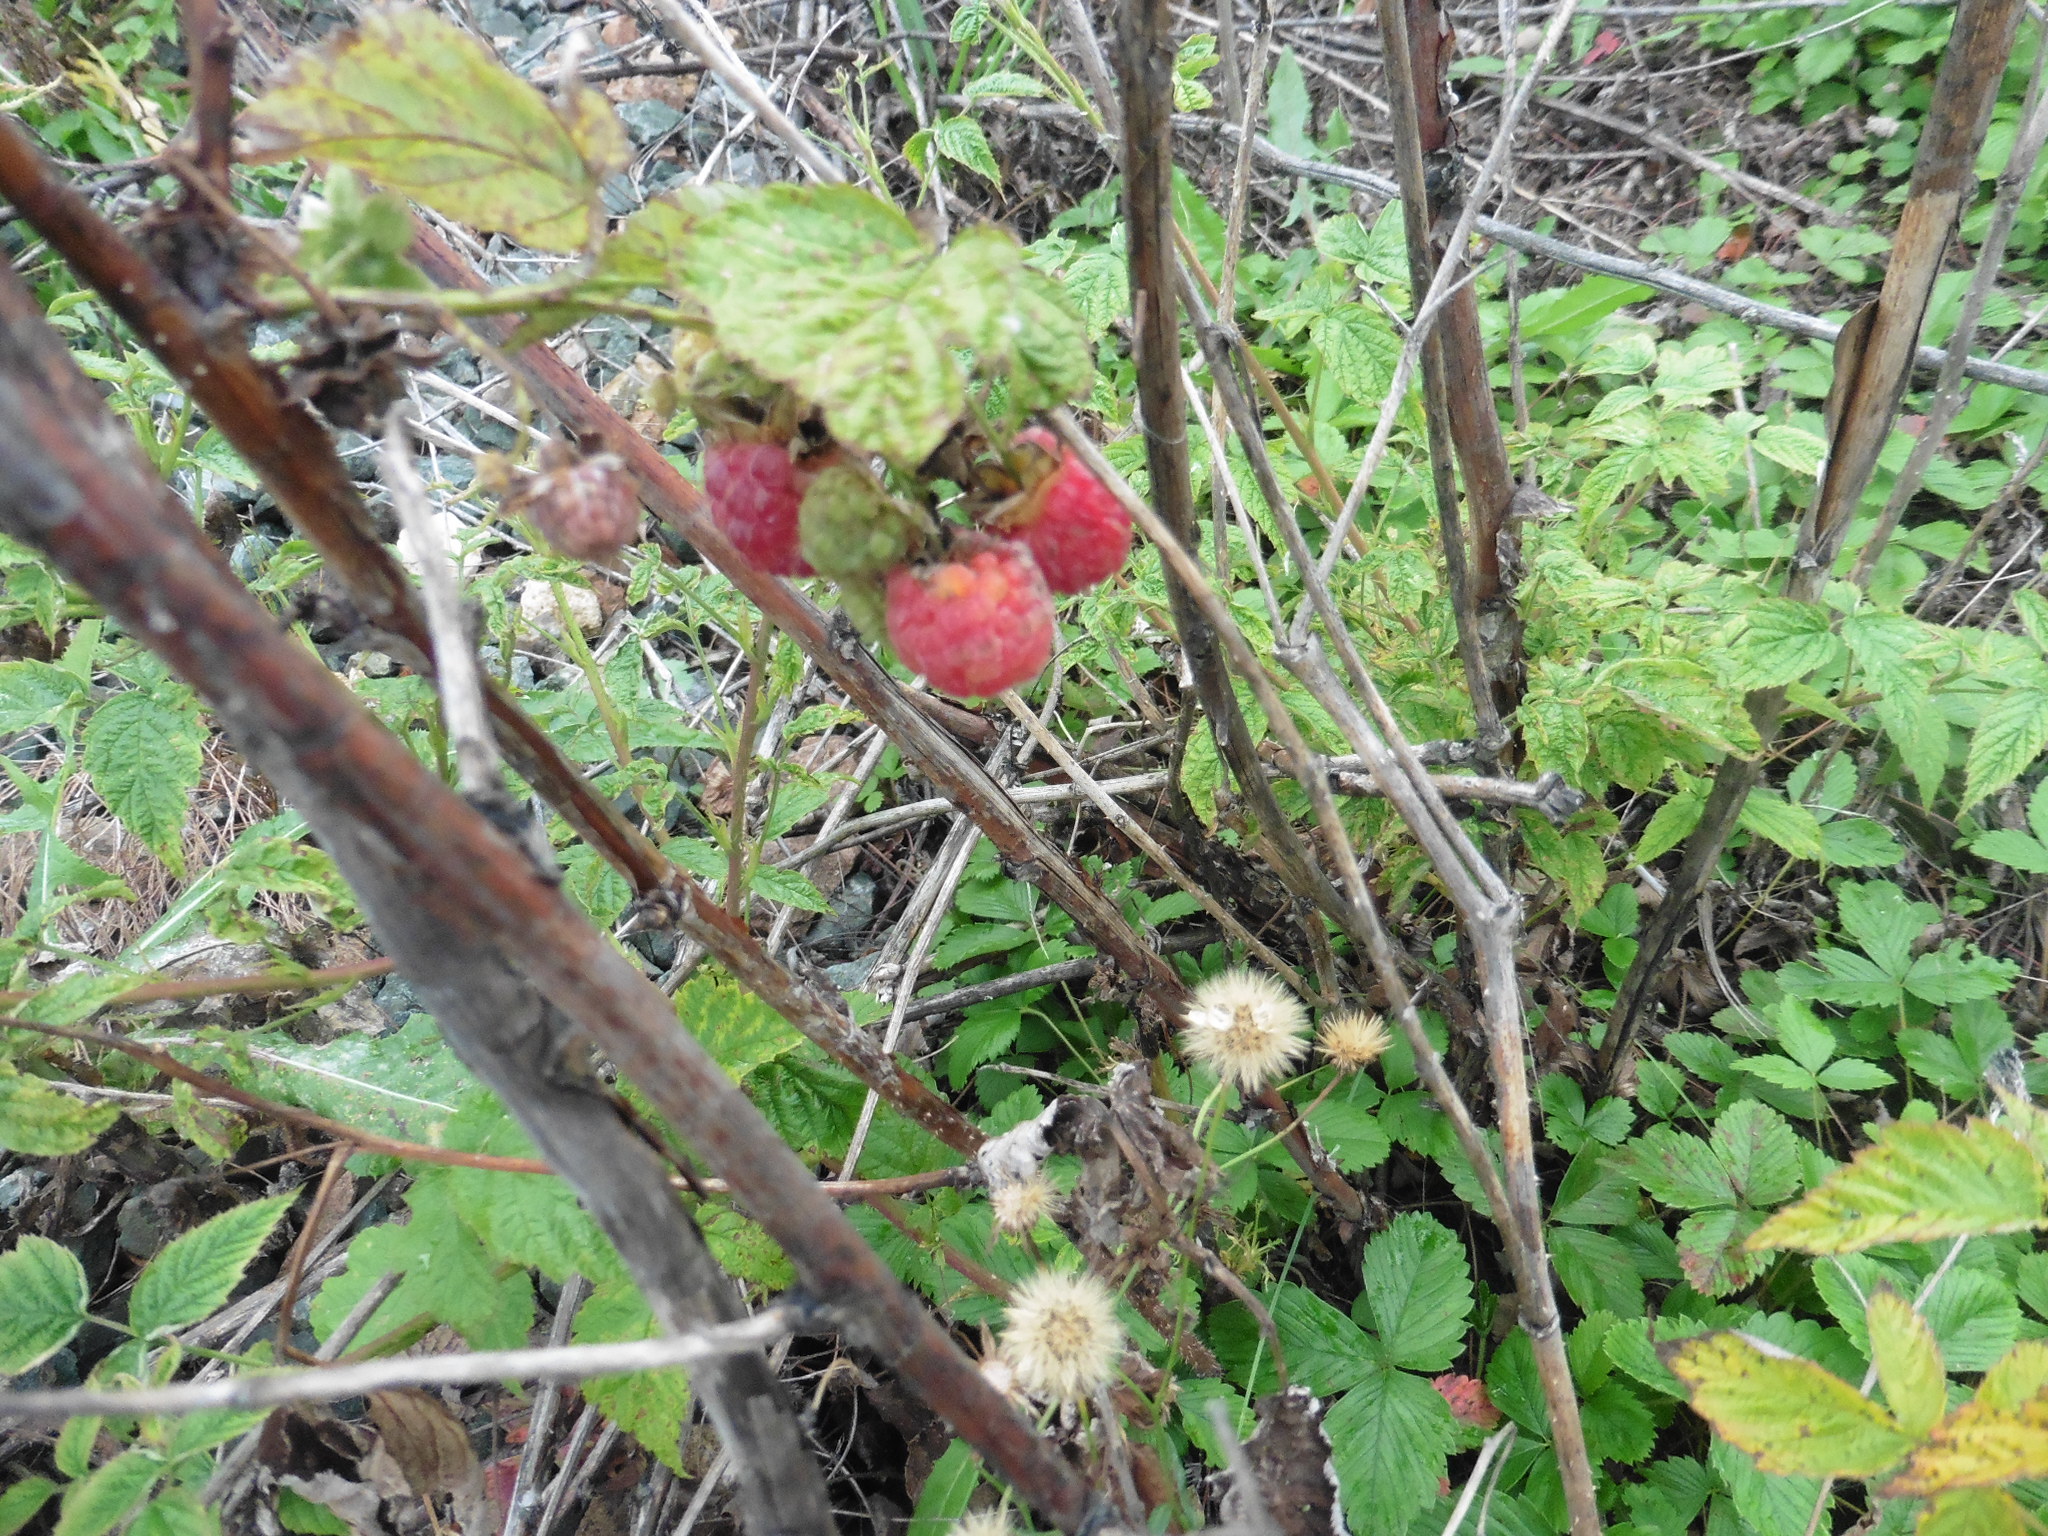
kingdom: Plantae
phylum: Tracheophyta
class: Magnoliopsida
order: Rosales
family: Rosaceae
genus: Rubus
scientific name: Rubus idaeus
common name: Raspberry
